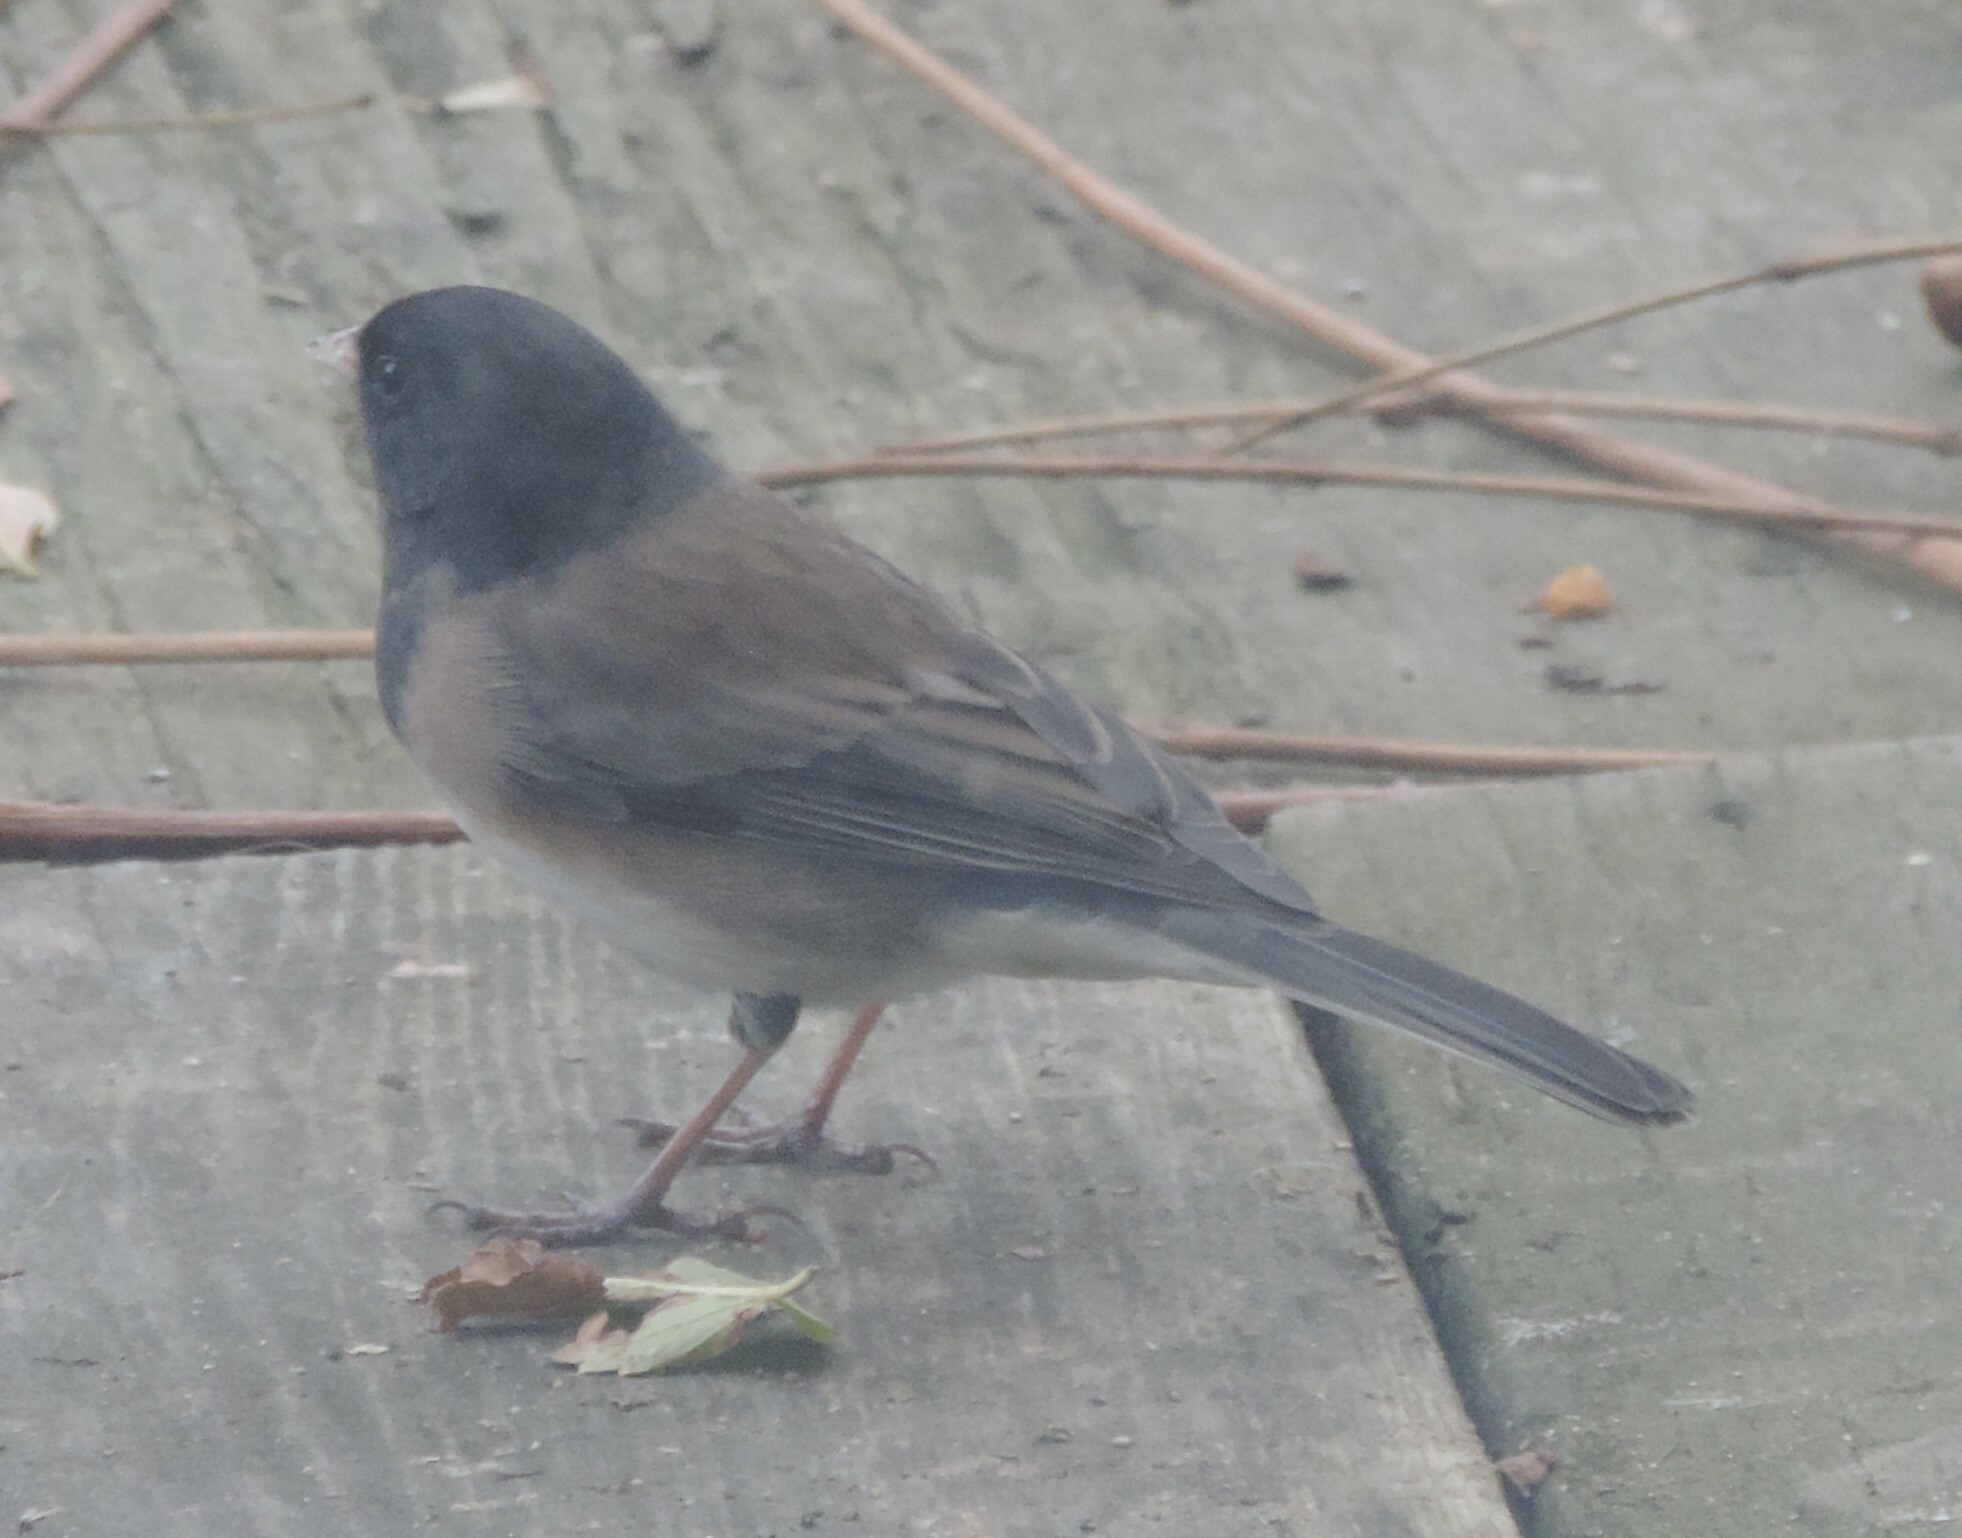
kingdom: Animalia
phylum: Chordata
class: Aves
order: Passeriformes
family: Passerellidae
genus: Junco
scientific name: Junco hyemalis
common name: Dark-eyed junco
